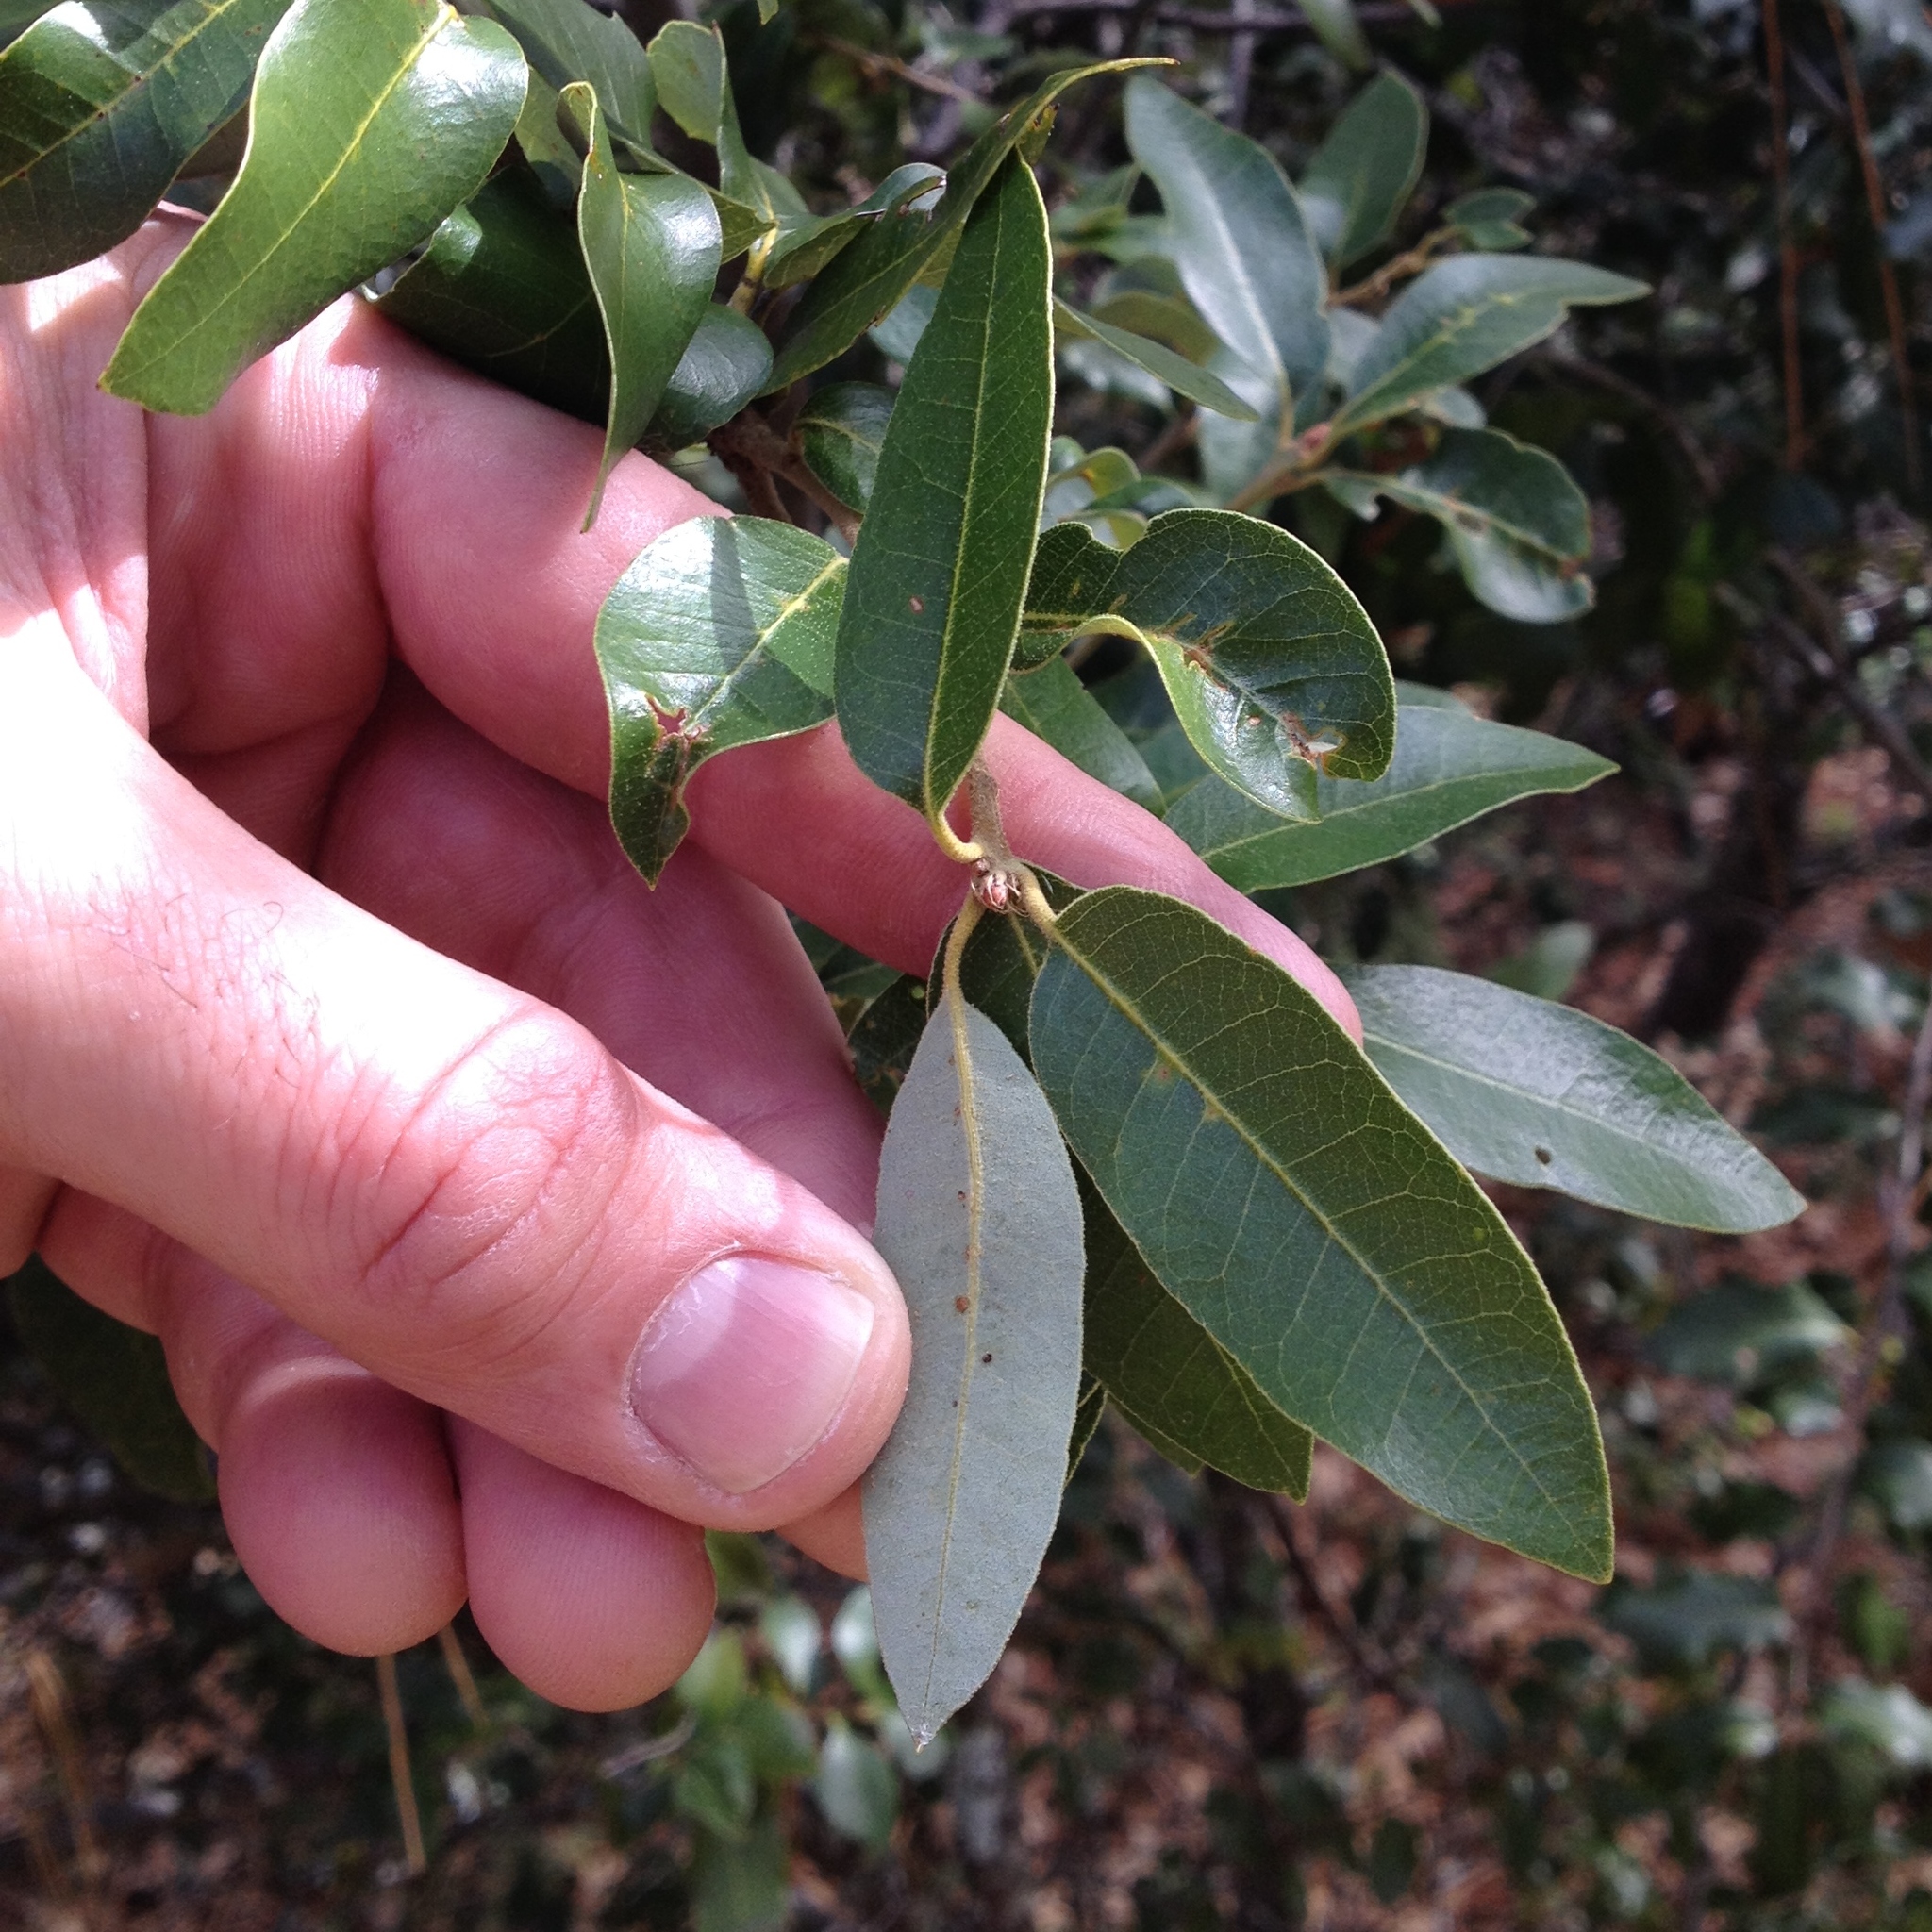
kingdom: Plantae
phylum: Tracheophyta
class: Magnoliopsida
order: Fagales
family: Fagaceae
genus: Quercus
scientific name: Quercus chrysolepis
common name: Canyon live oak
